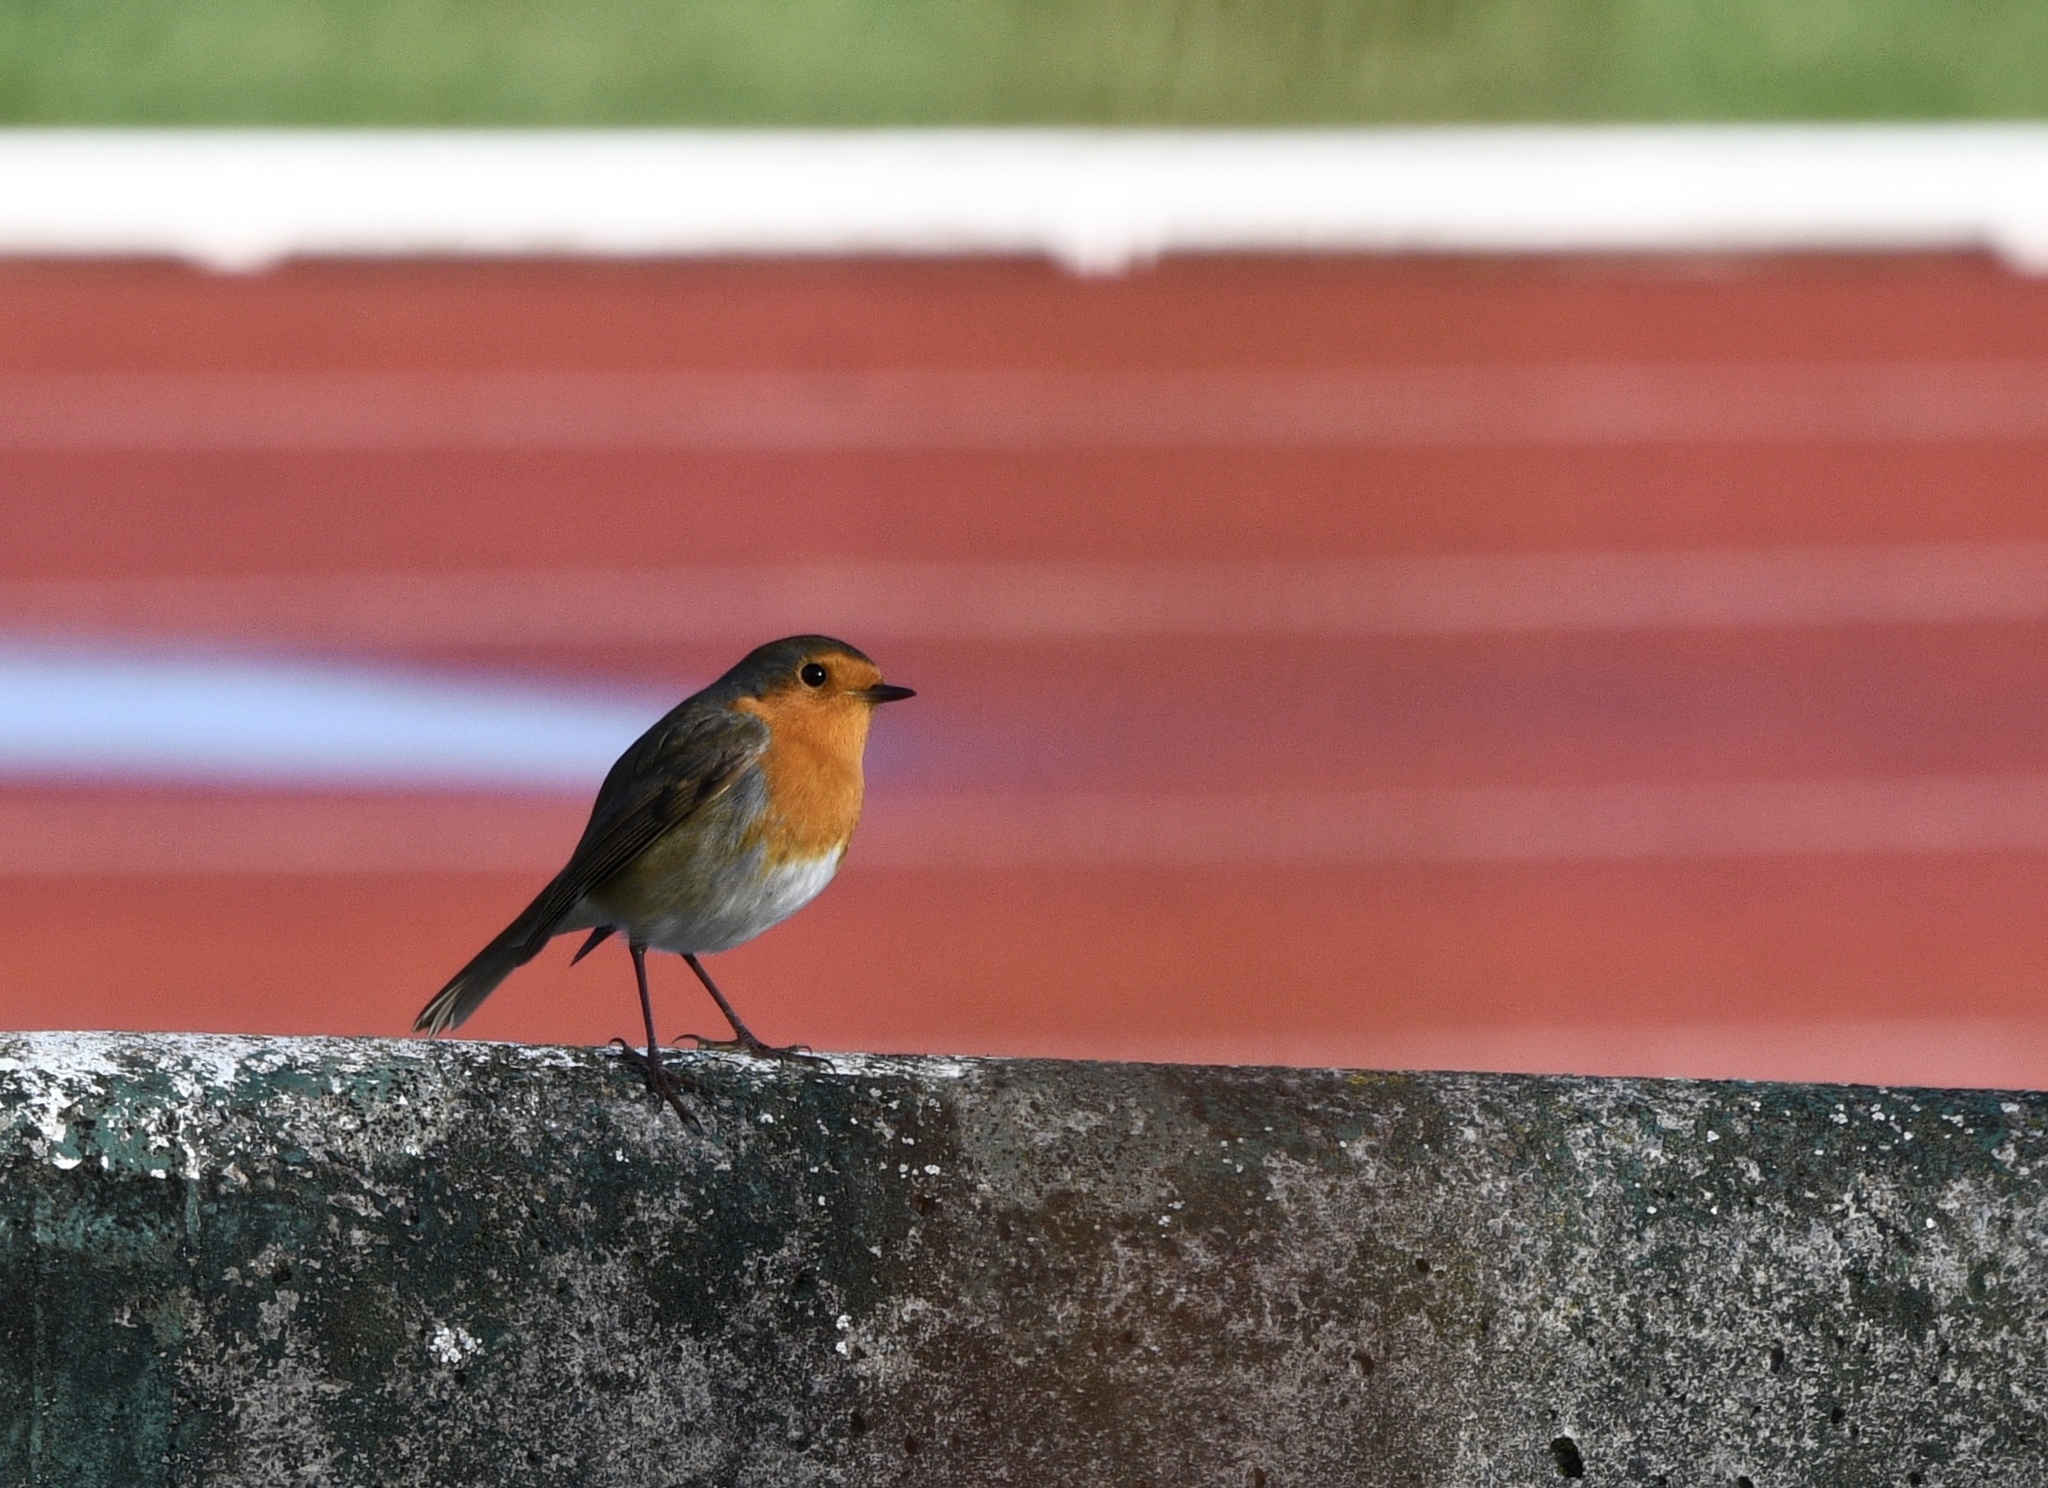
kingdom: Animalia
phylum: Chordata
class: Aves
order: Passeriformes
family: Muscicapidae
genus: Erithacus
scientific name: Erithacus rubecula
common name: European robin
